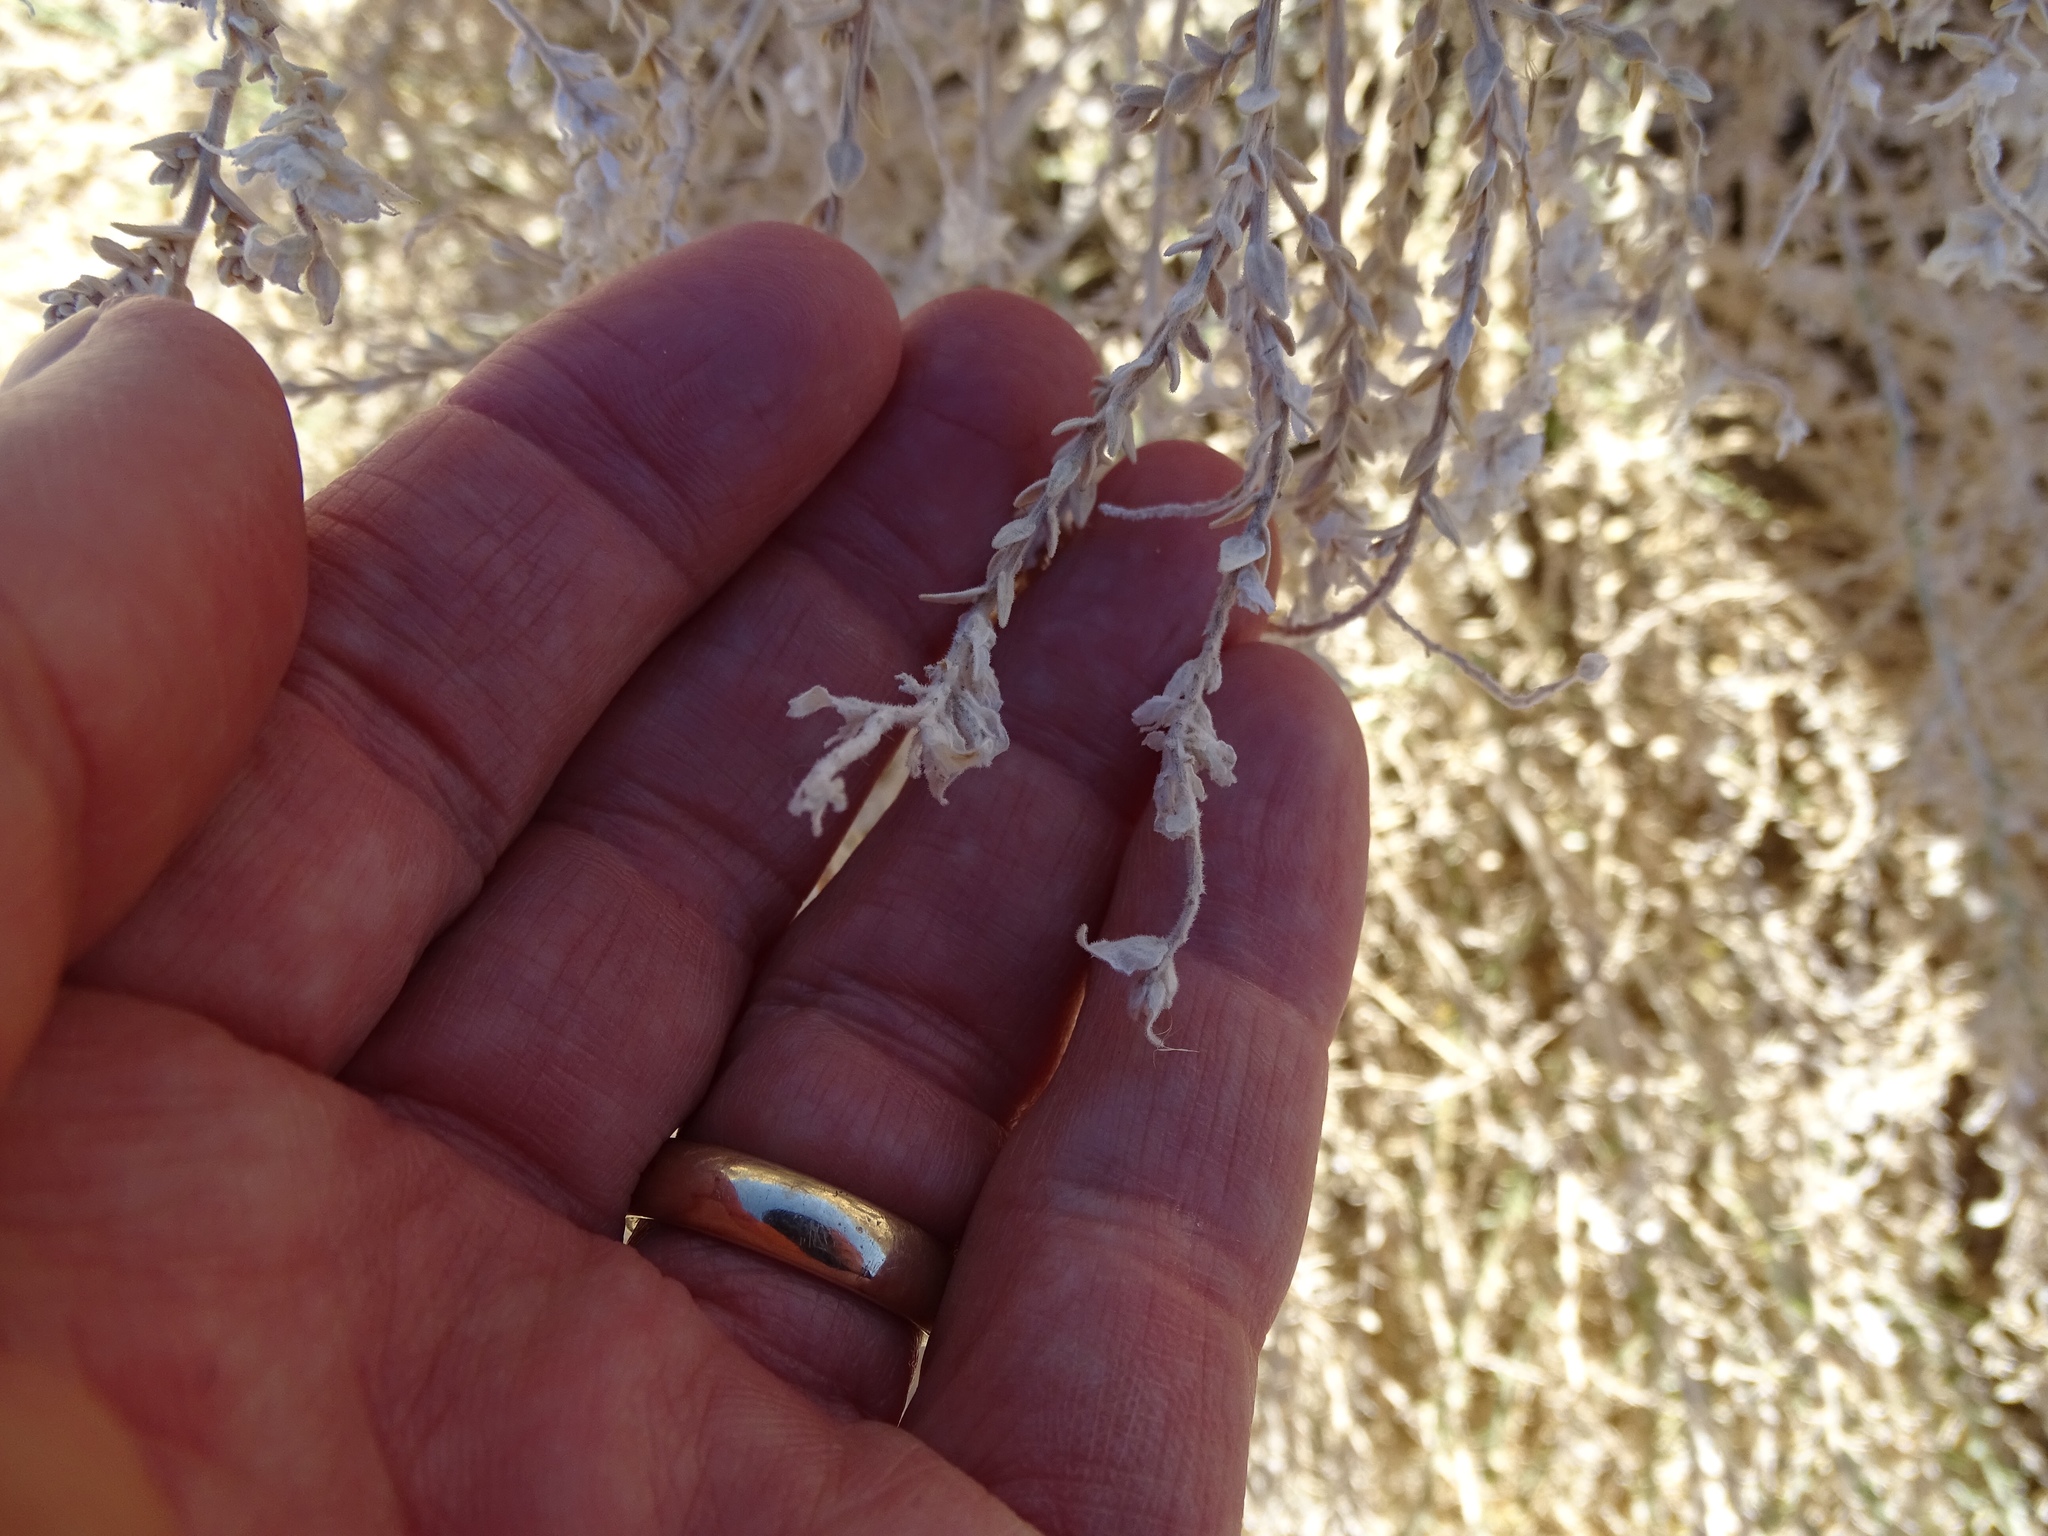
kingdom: Plantae
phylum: Tracheophyta
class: Magnoliopsida
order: Cornales
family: Loasaceae
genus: Petalonyx
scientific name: Petalonyx thurberi
